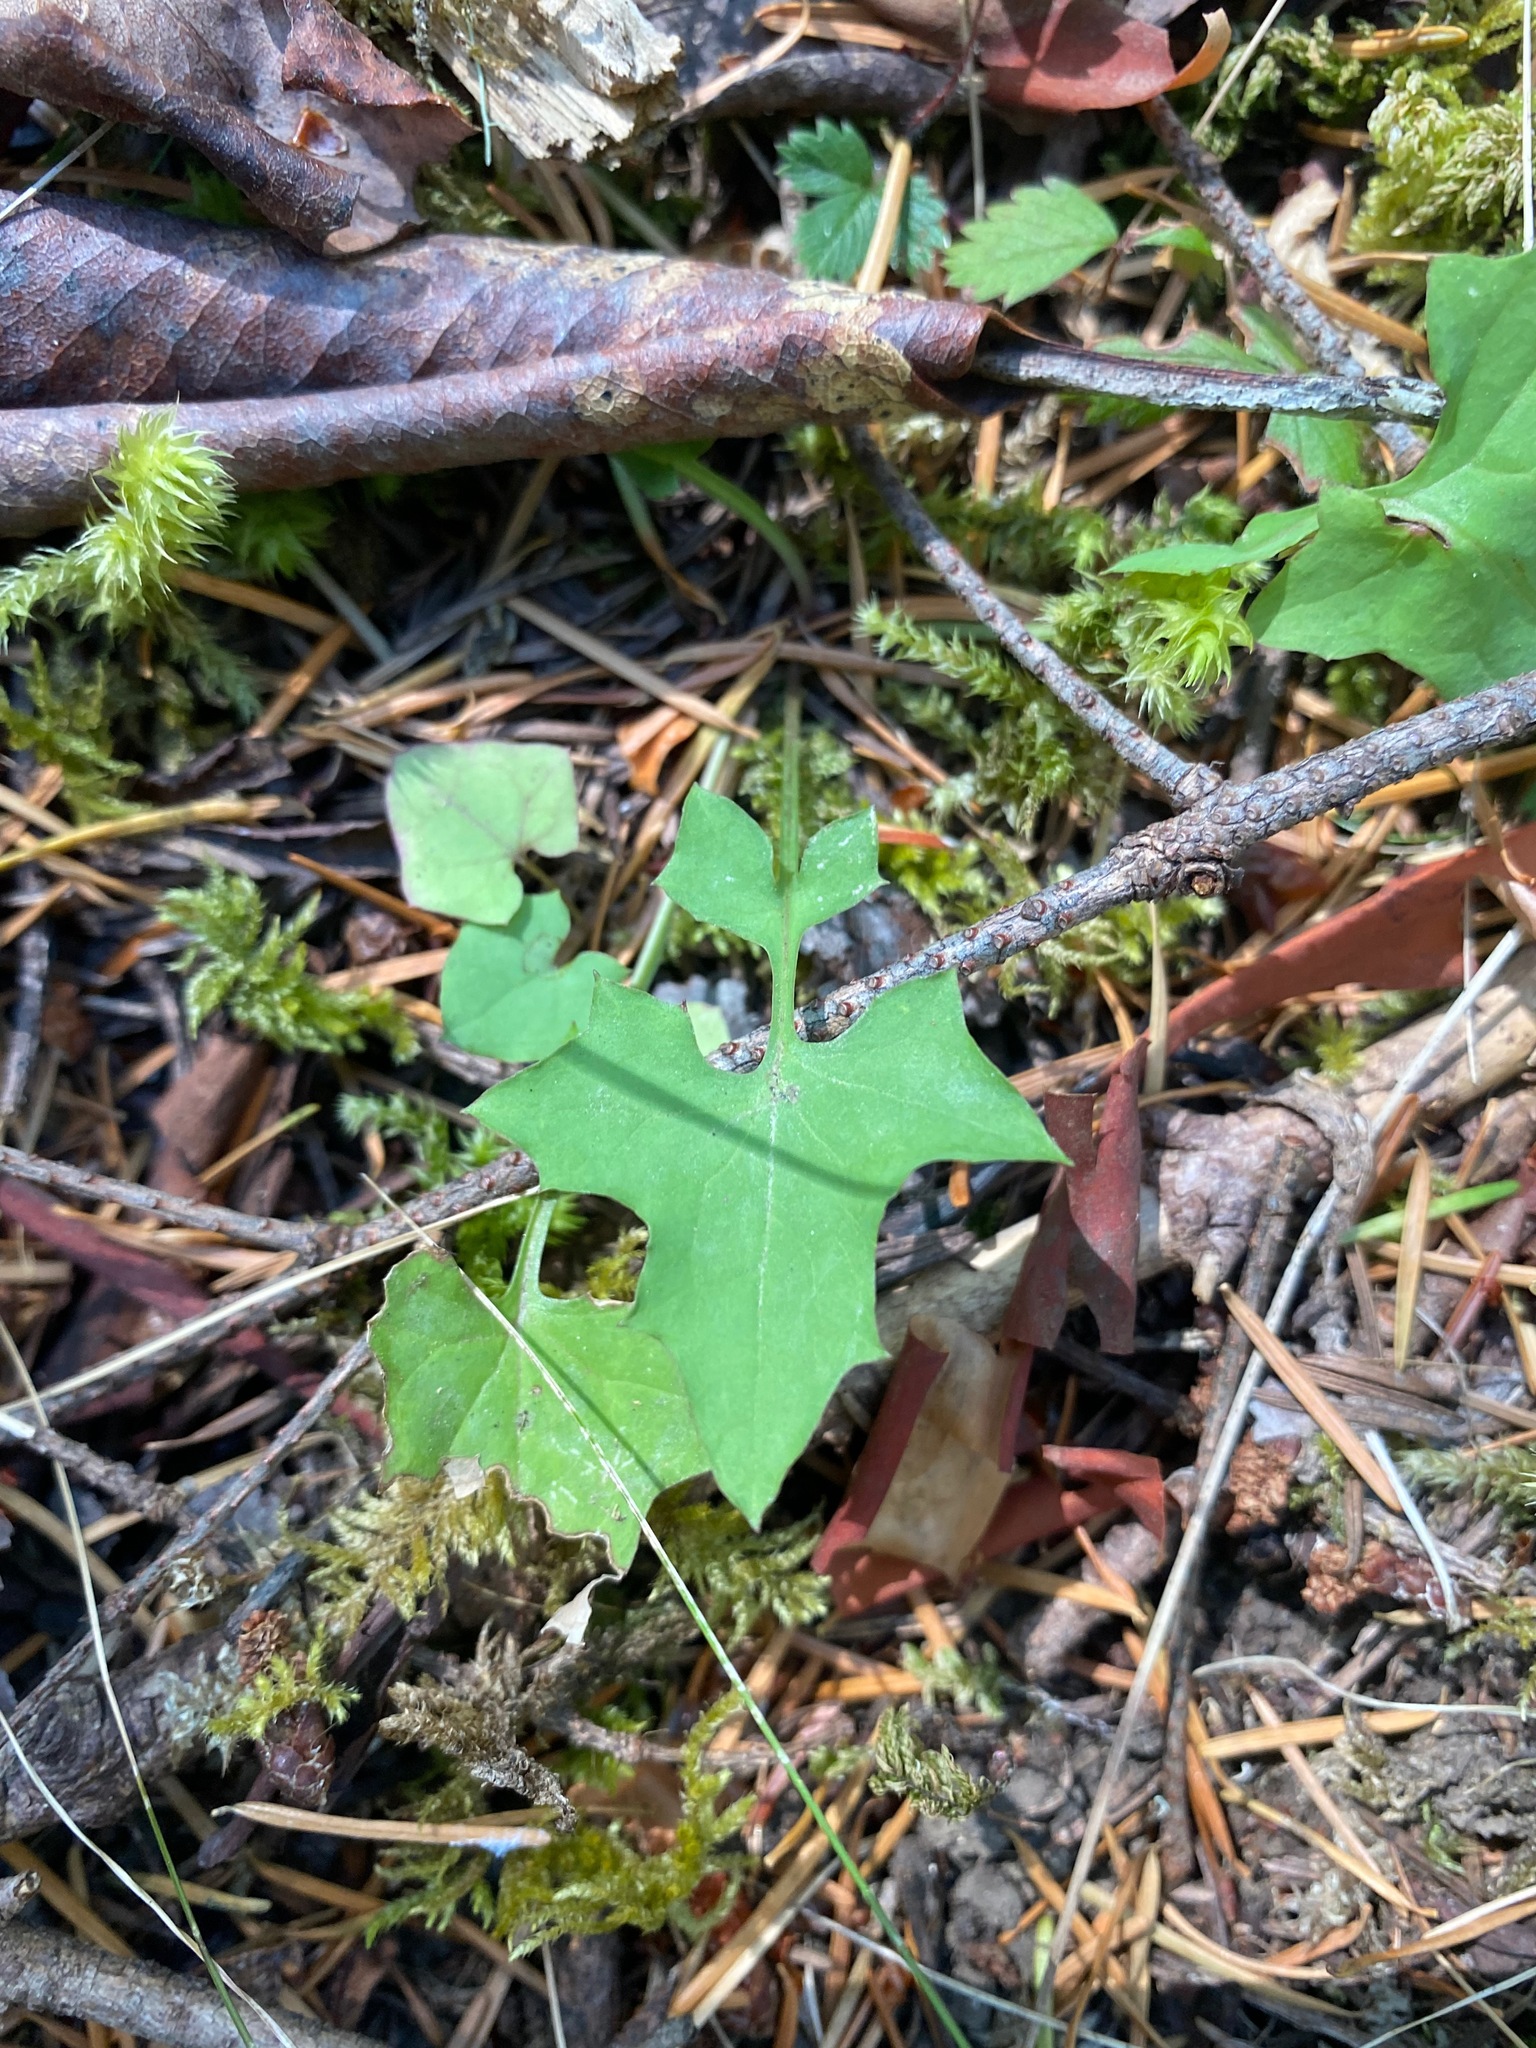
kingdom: Plantae
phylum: Tracheophyta
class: Magnoliopsida
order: Asterales
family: Asteraceae
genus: Mycelis
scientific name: Mycelis muralis
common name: Wall lettuce
